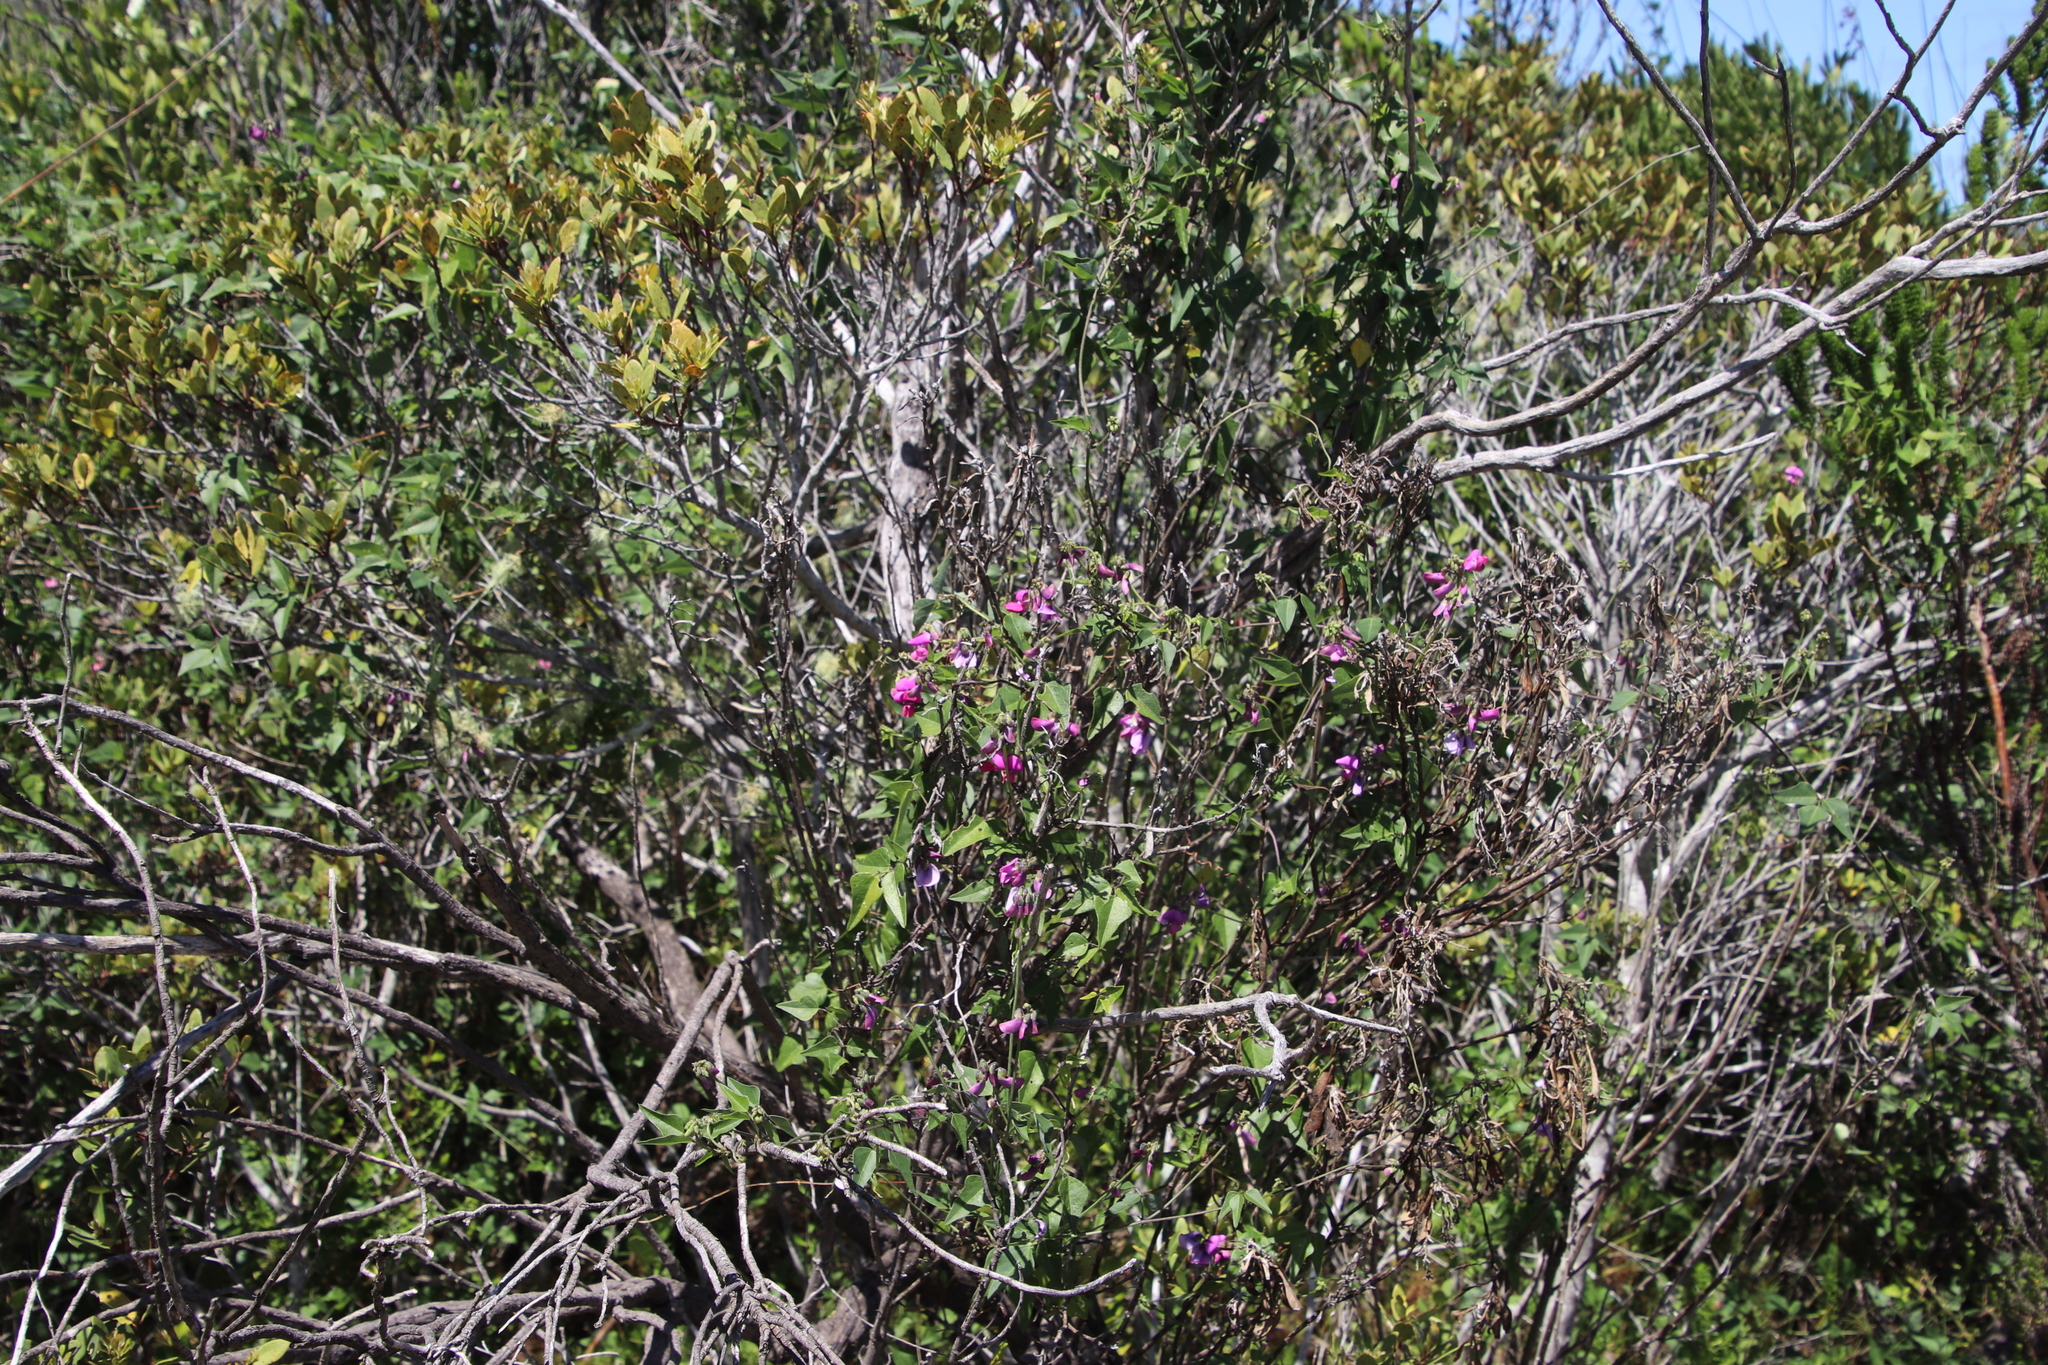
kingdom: Plantae
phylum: Tracheophyta
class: Magnoliopsida
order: Fabales
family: Fabaceae
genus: Dipogon
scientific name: Dipogon lignosus
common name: Okie bean
